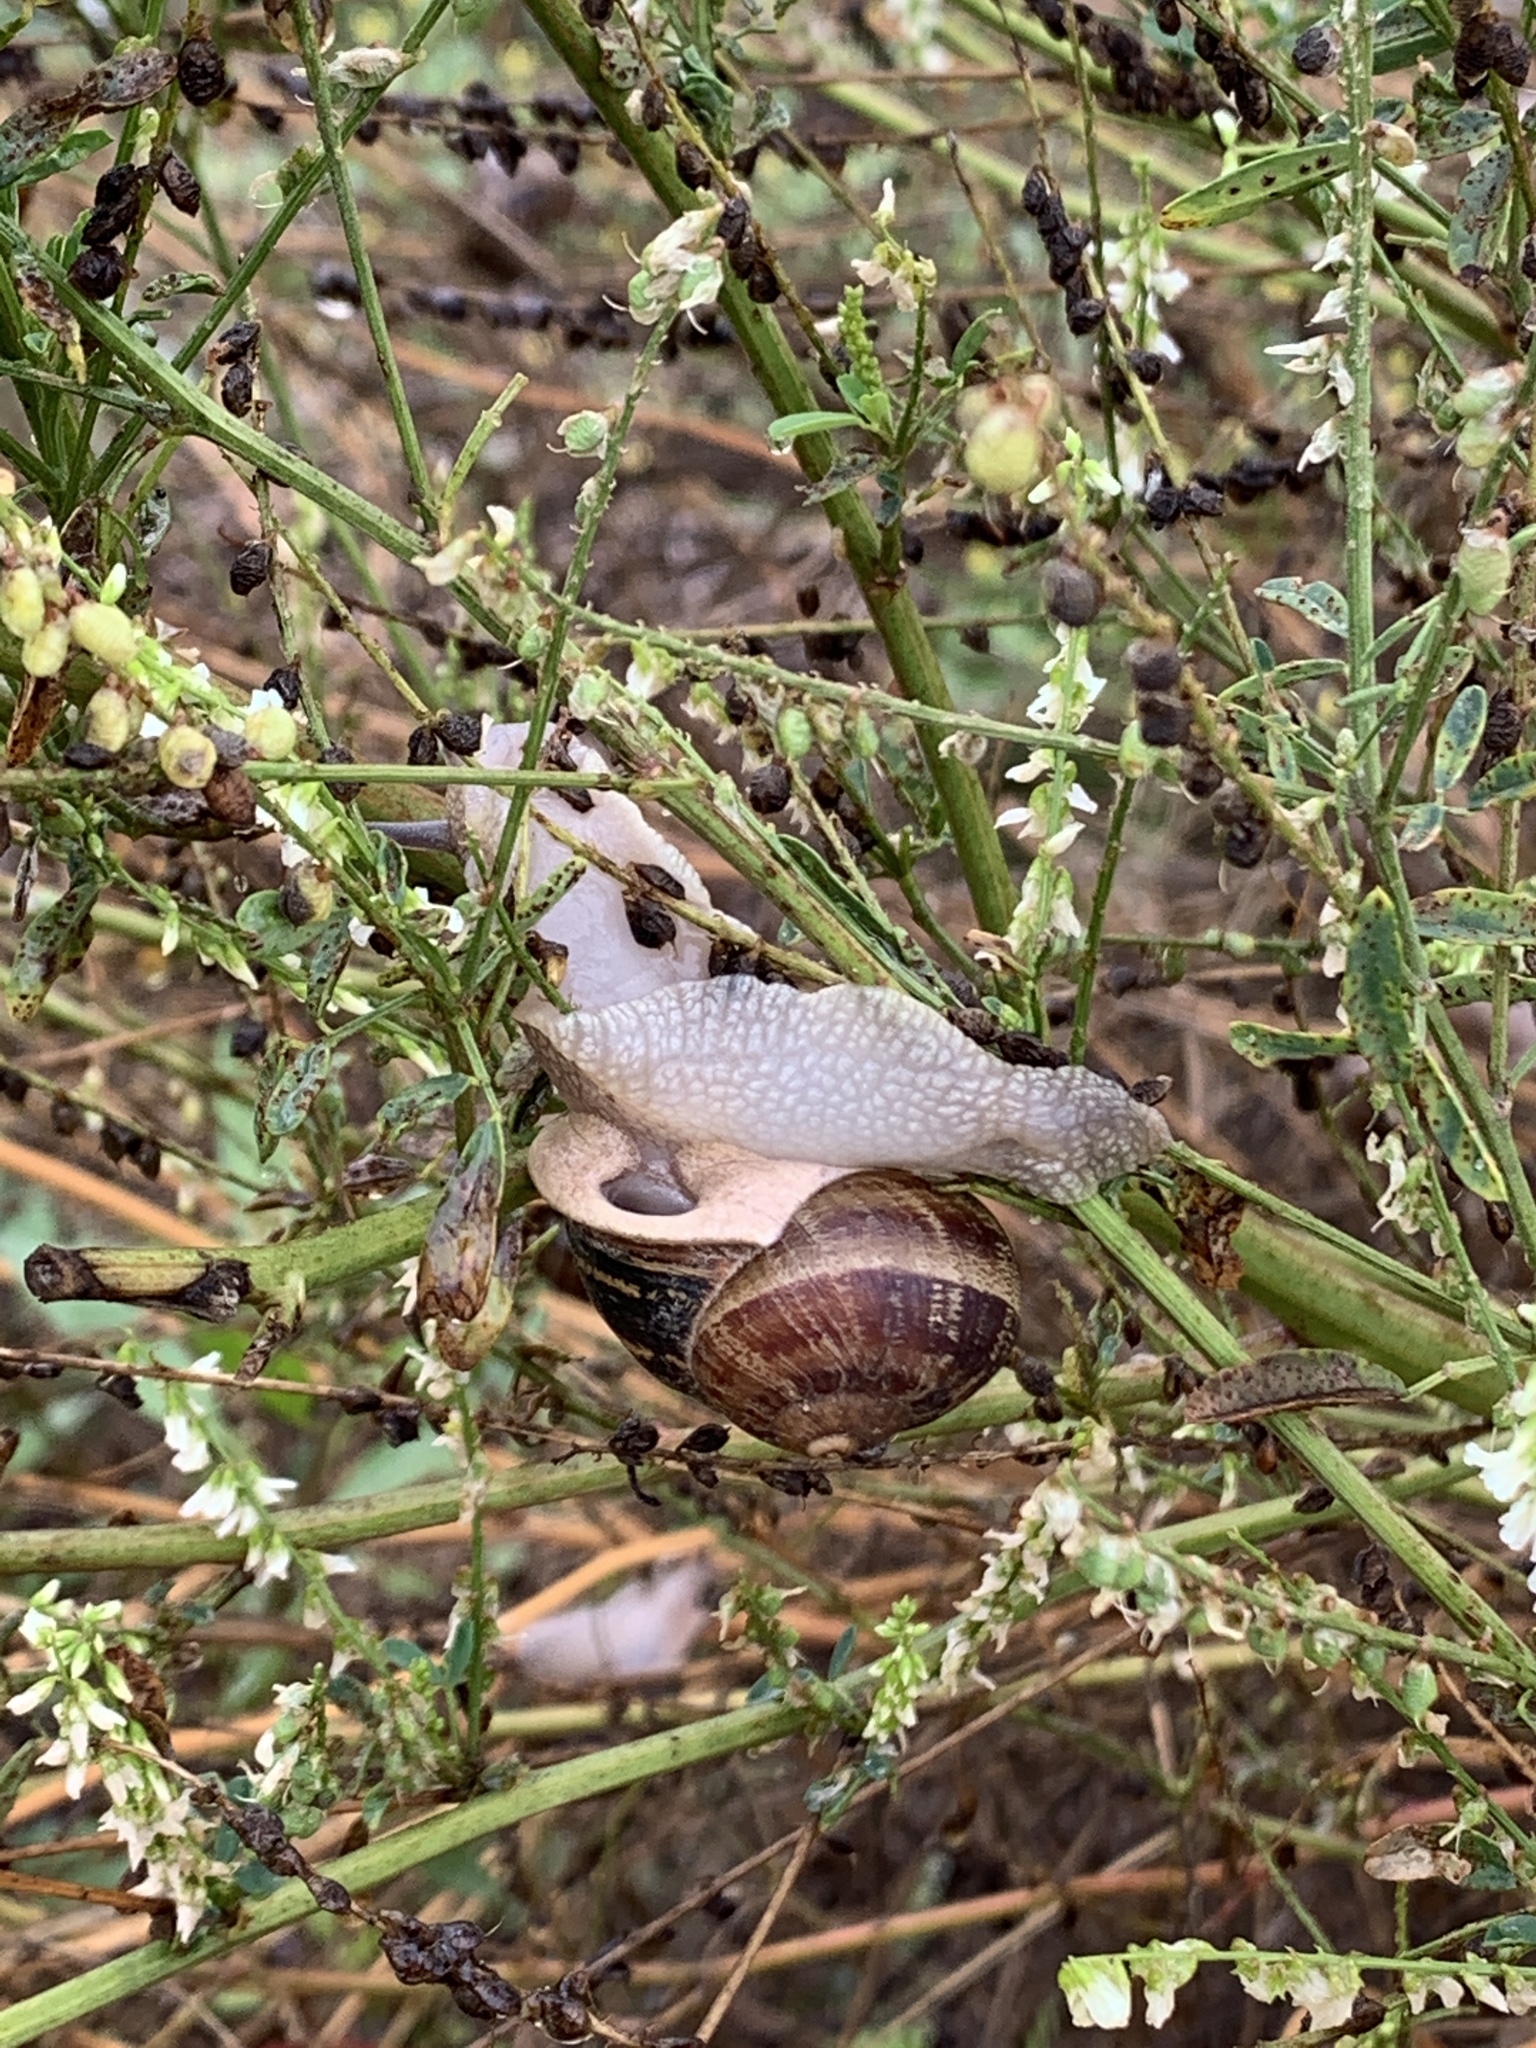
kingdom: Animalia
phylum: Mollusca
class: Gastropoda
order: Stylommatophora
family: Helicidae
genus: Cornu
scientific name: Cornu aspersum
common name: Brown garden snail
